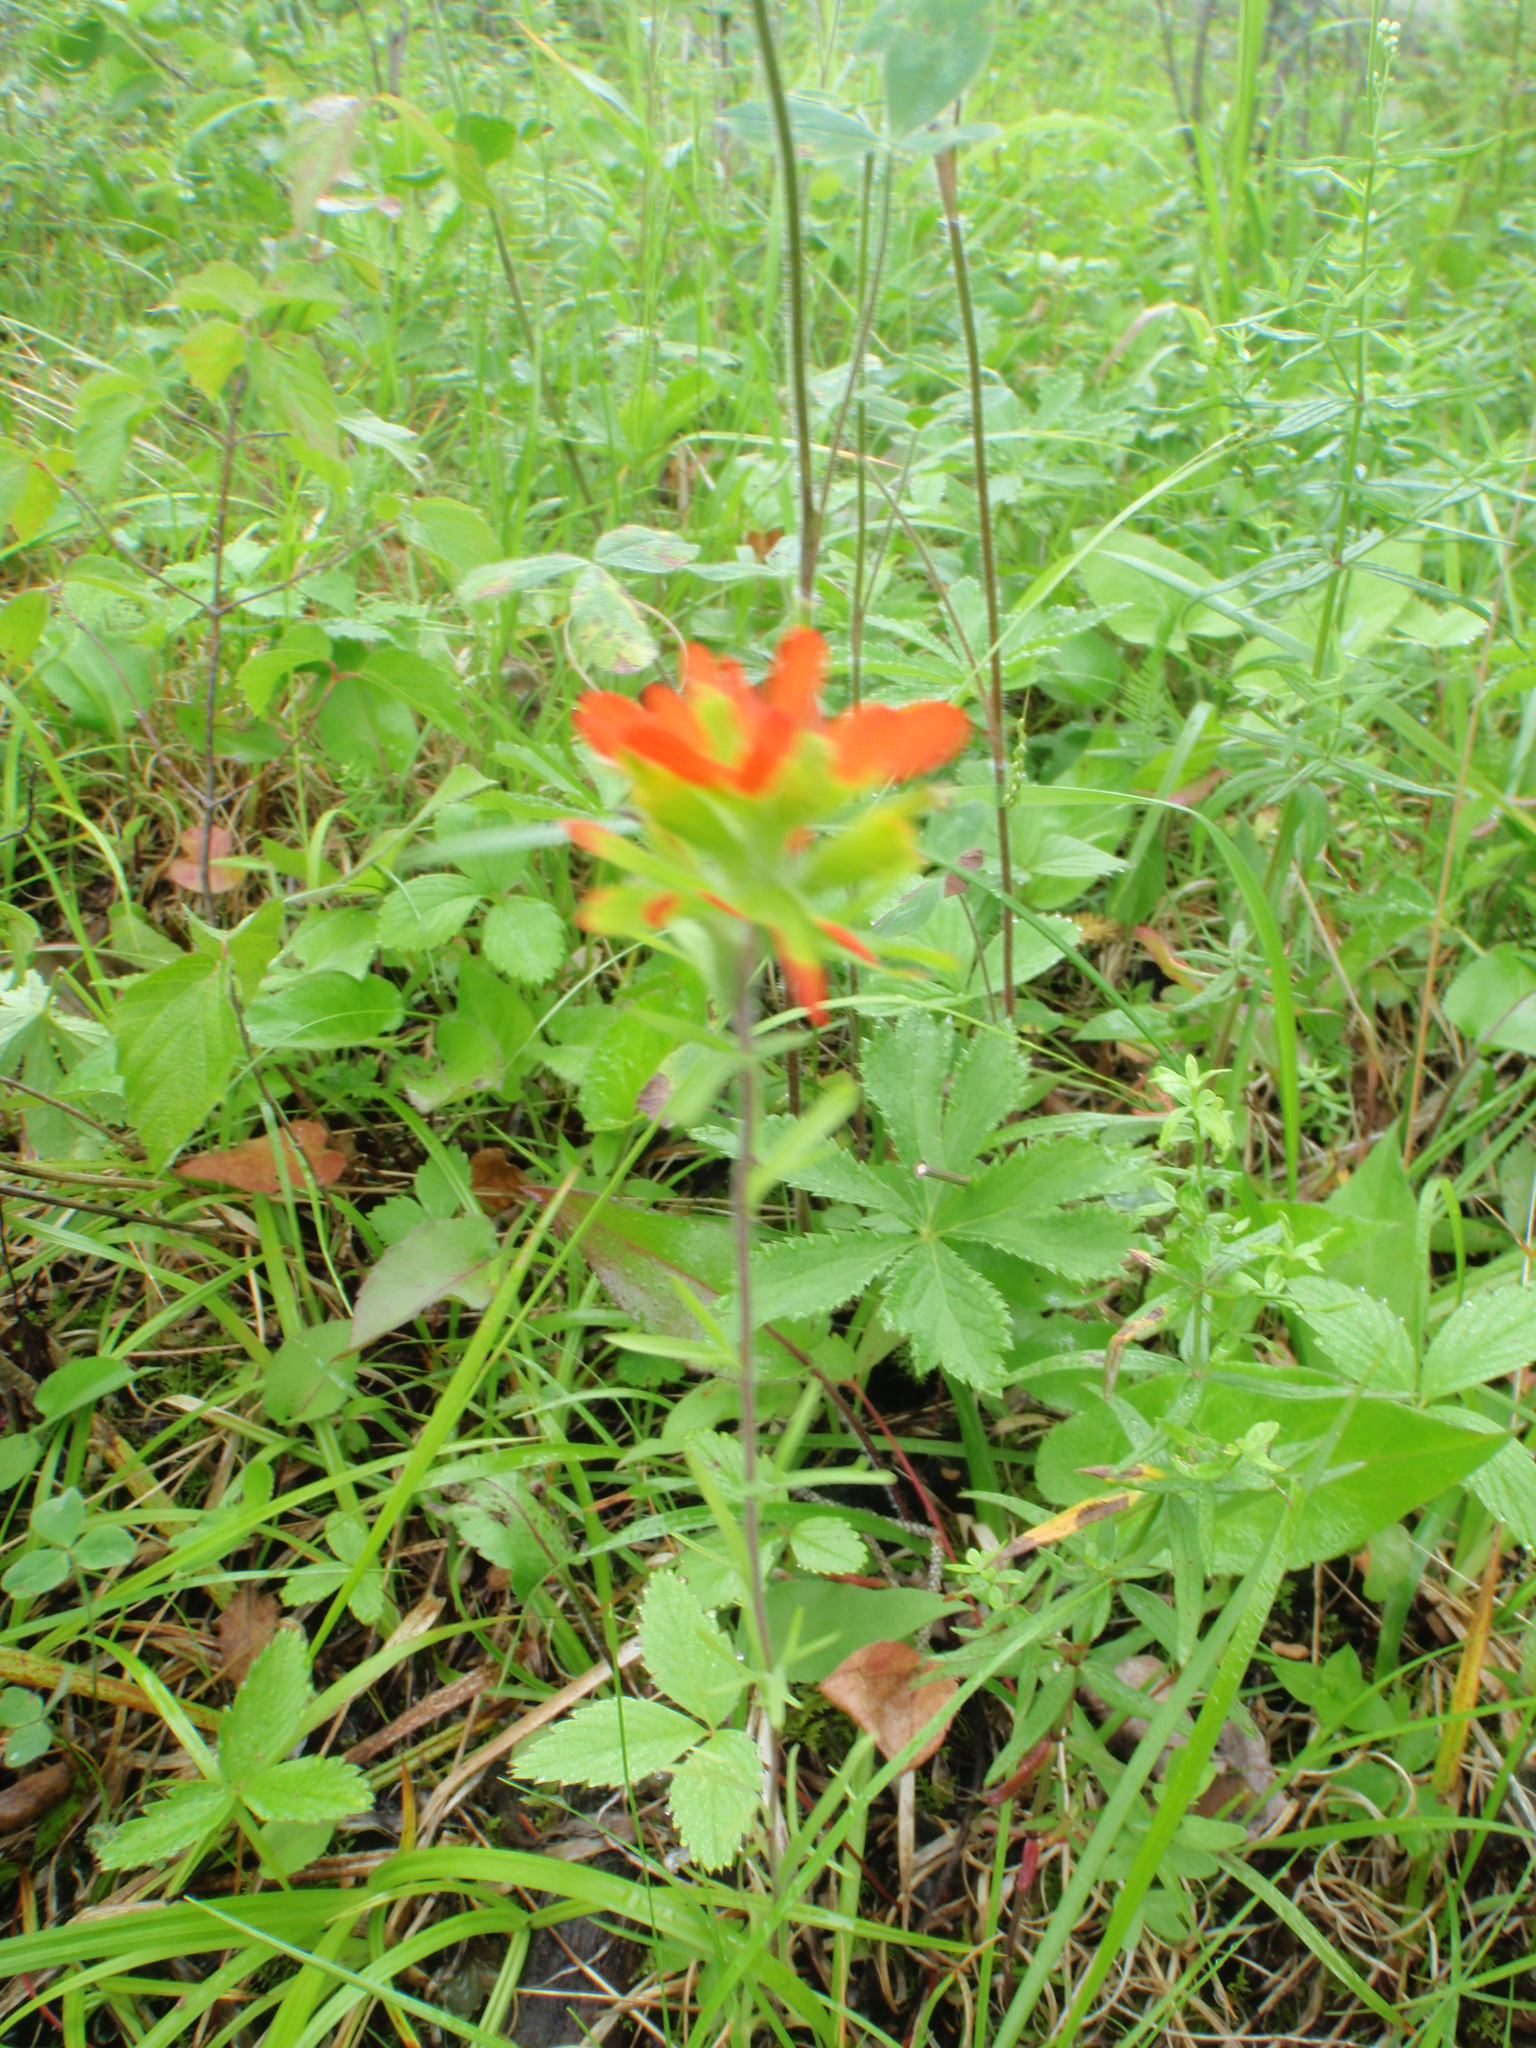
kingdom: Plantae
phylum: Tracheophyta
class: Magnoliopsida
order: Lamiales
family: Orobanchaceae
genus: Castilleja
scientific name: Castilleja coccinea
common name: Scarlet paintbrush
